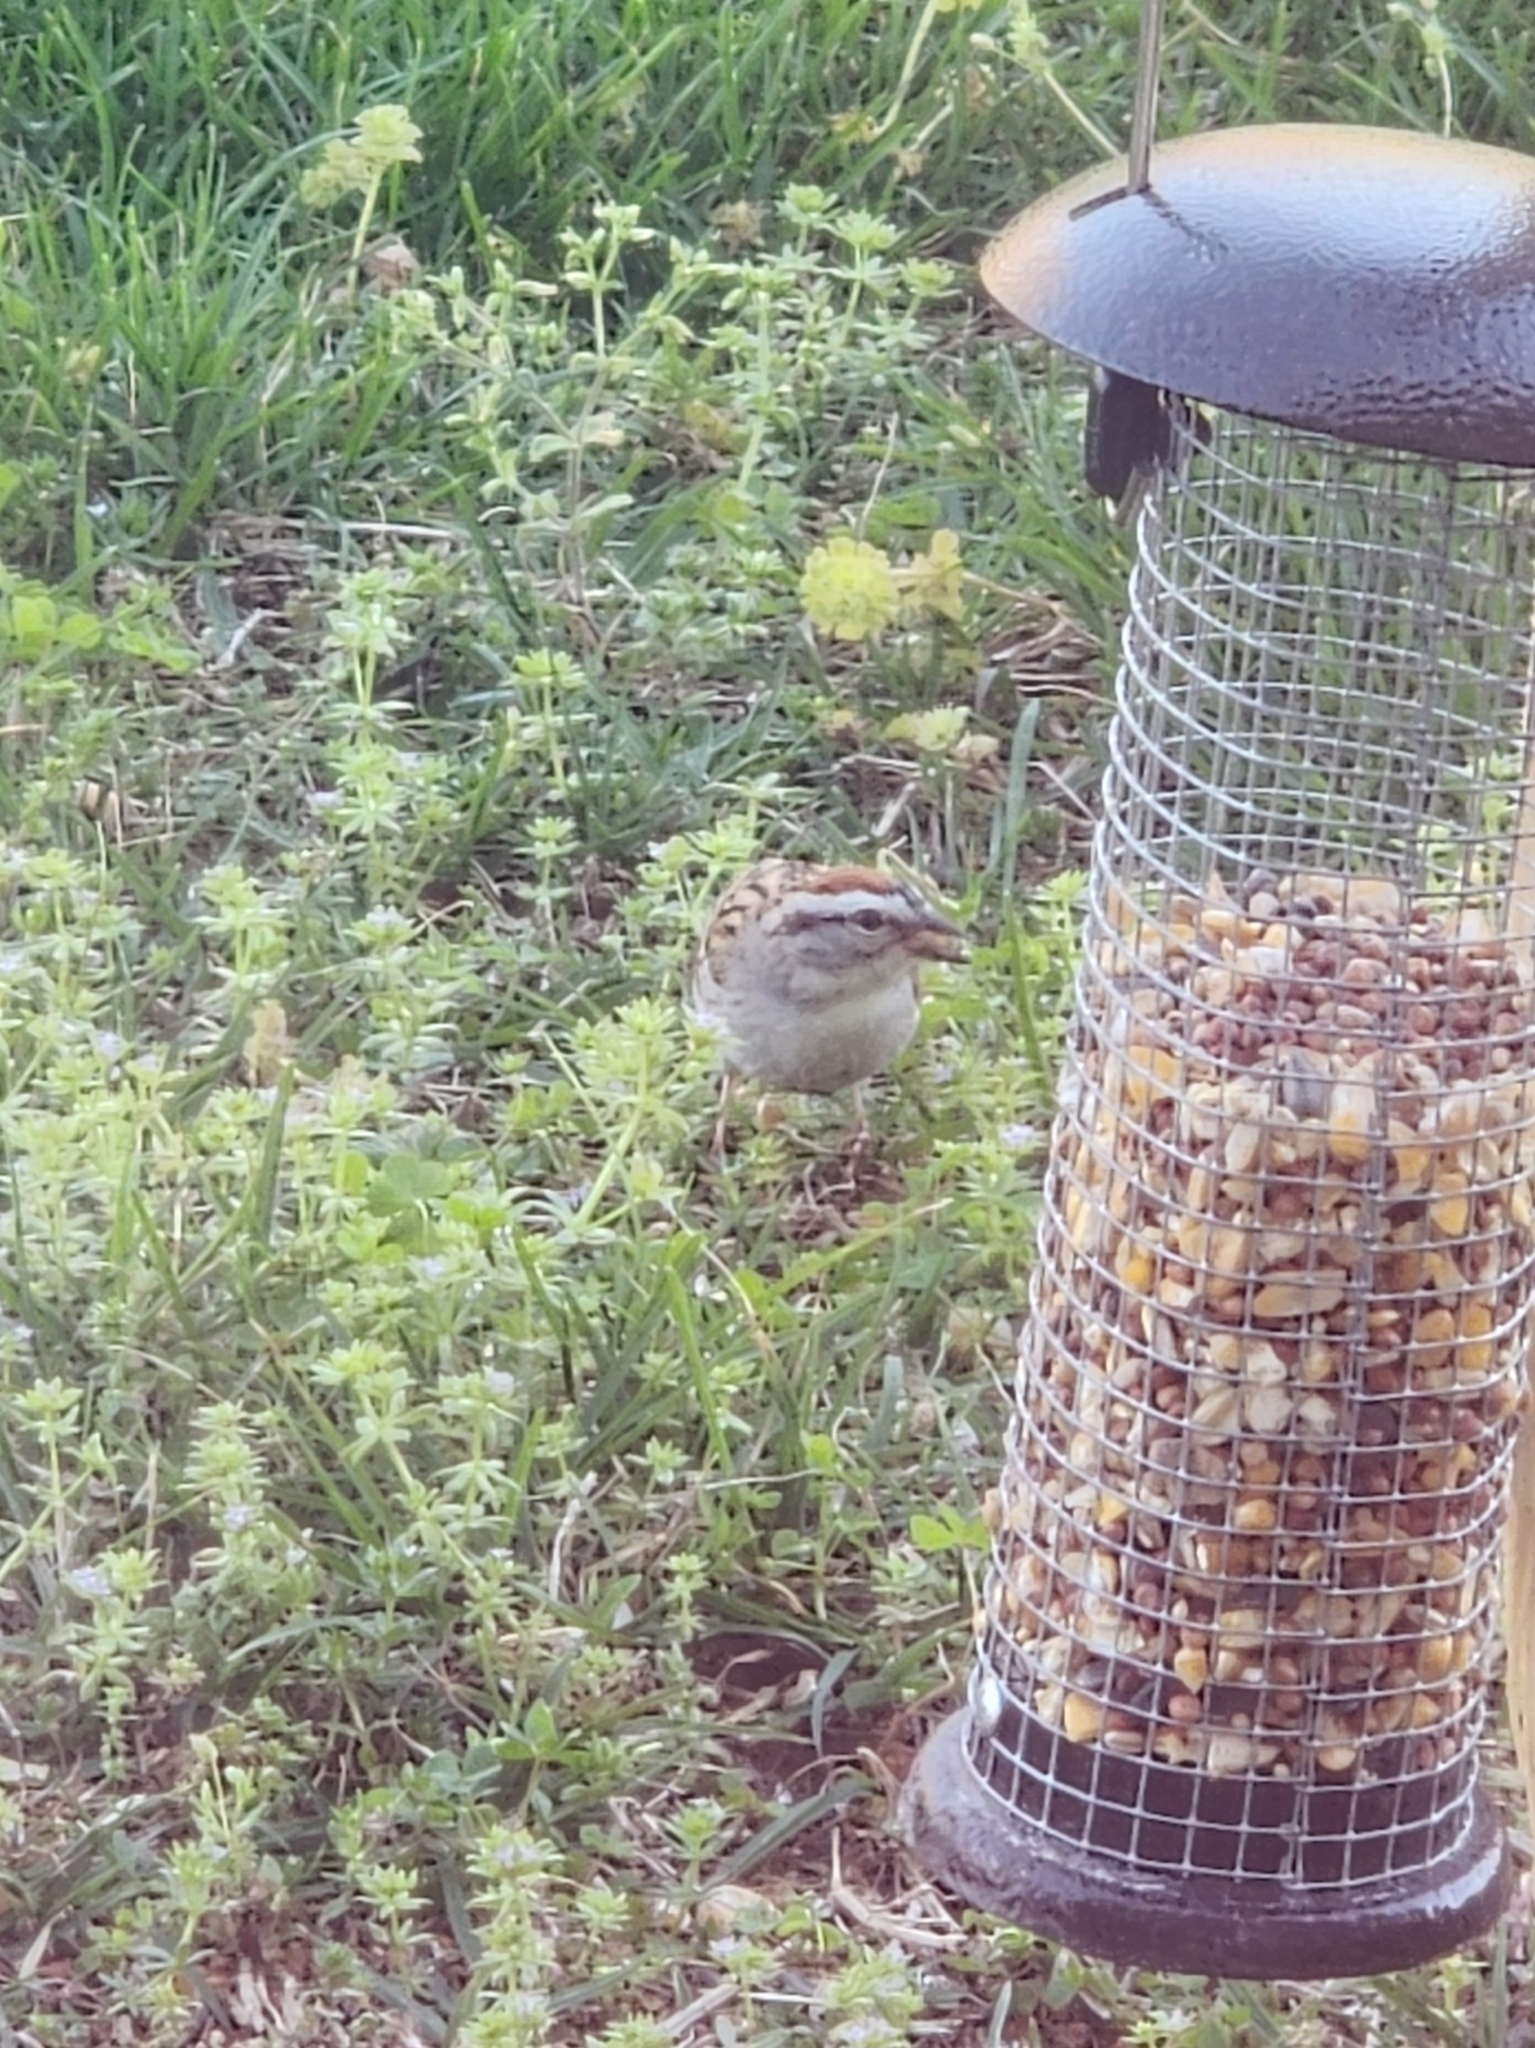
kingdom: Animalia
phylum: Chordata
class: Aves
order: Passeriformes
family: Passerellidae
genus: Spizella
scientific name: Spizella passerina
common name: Chipping sparrow
